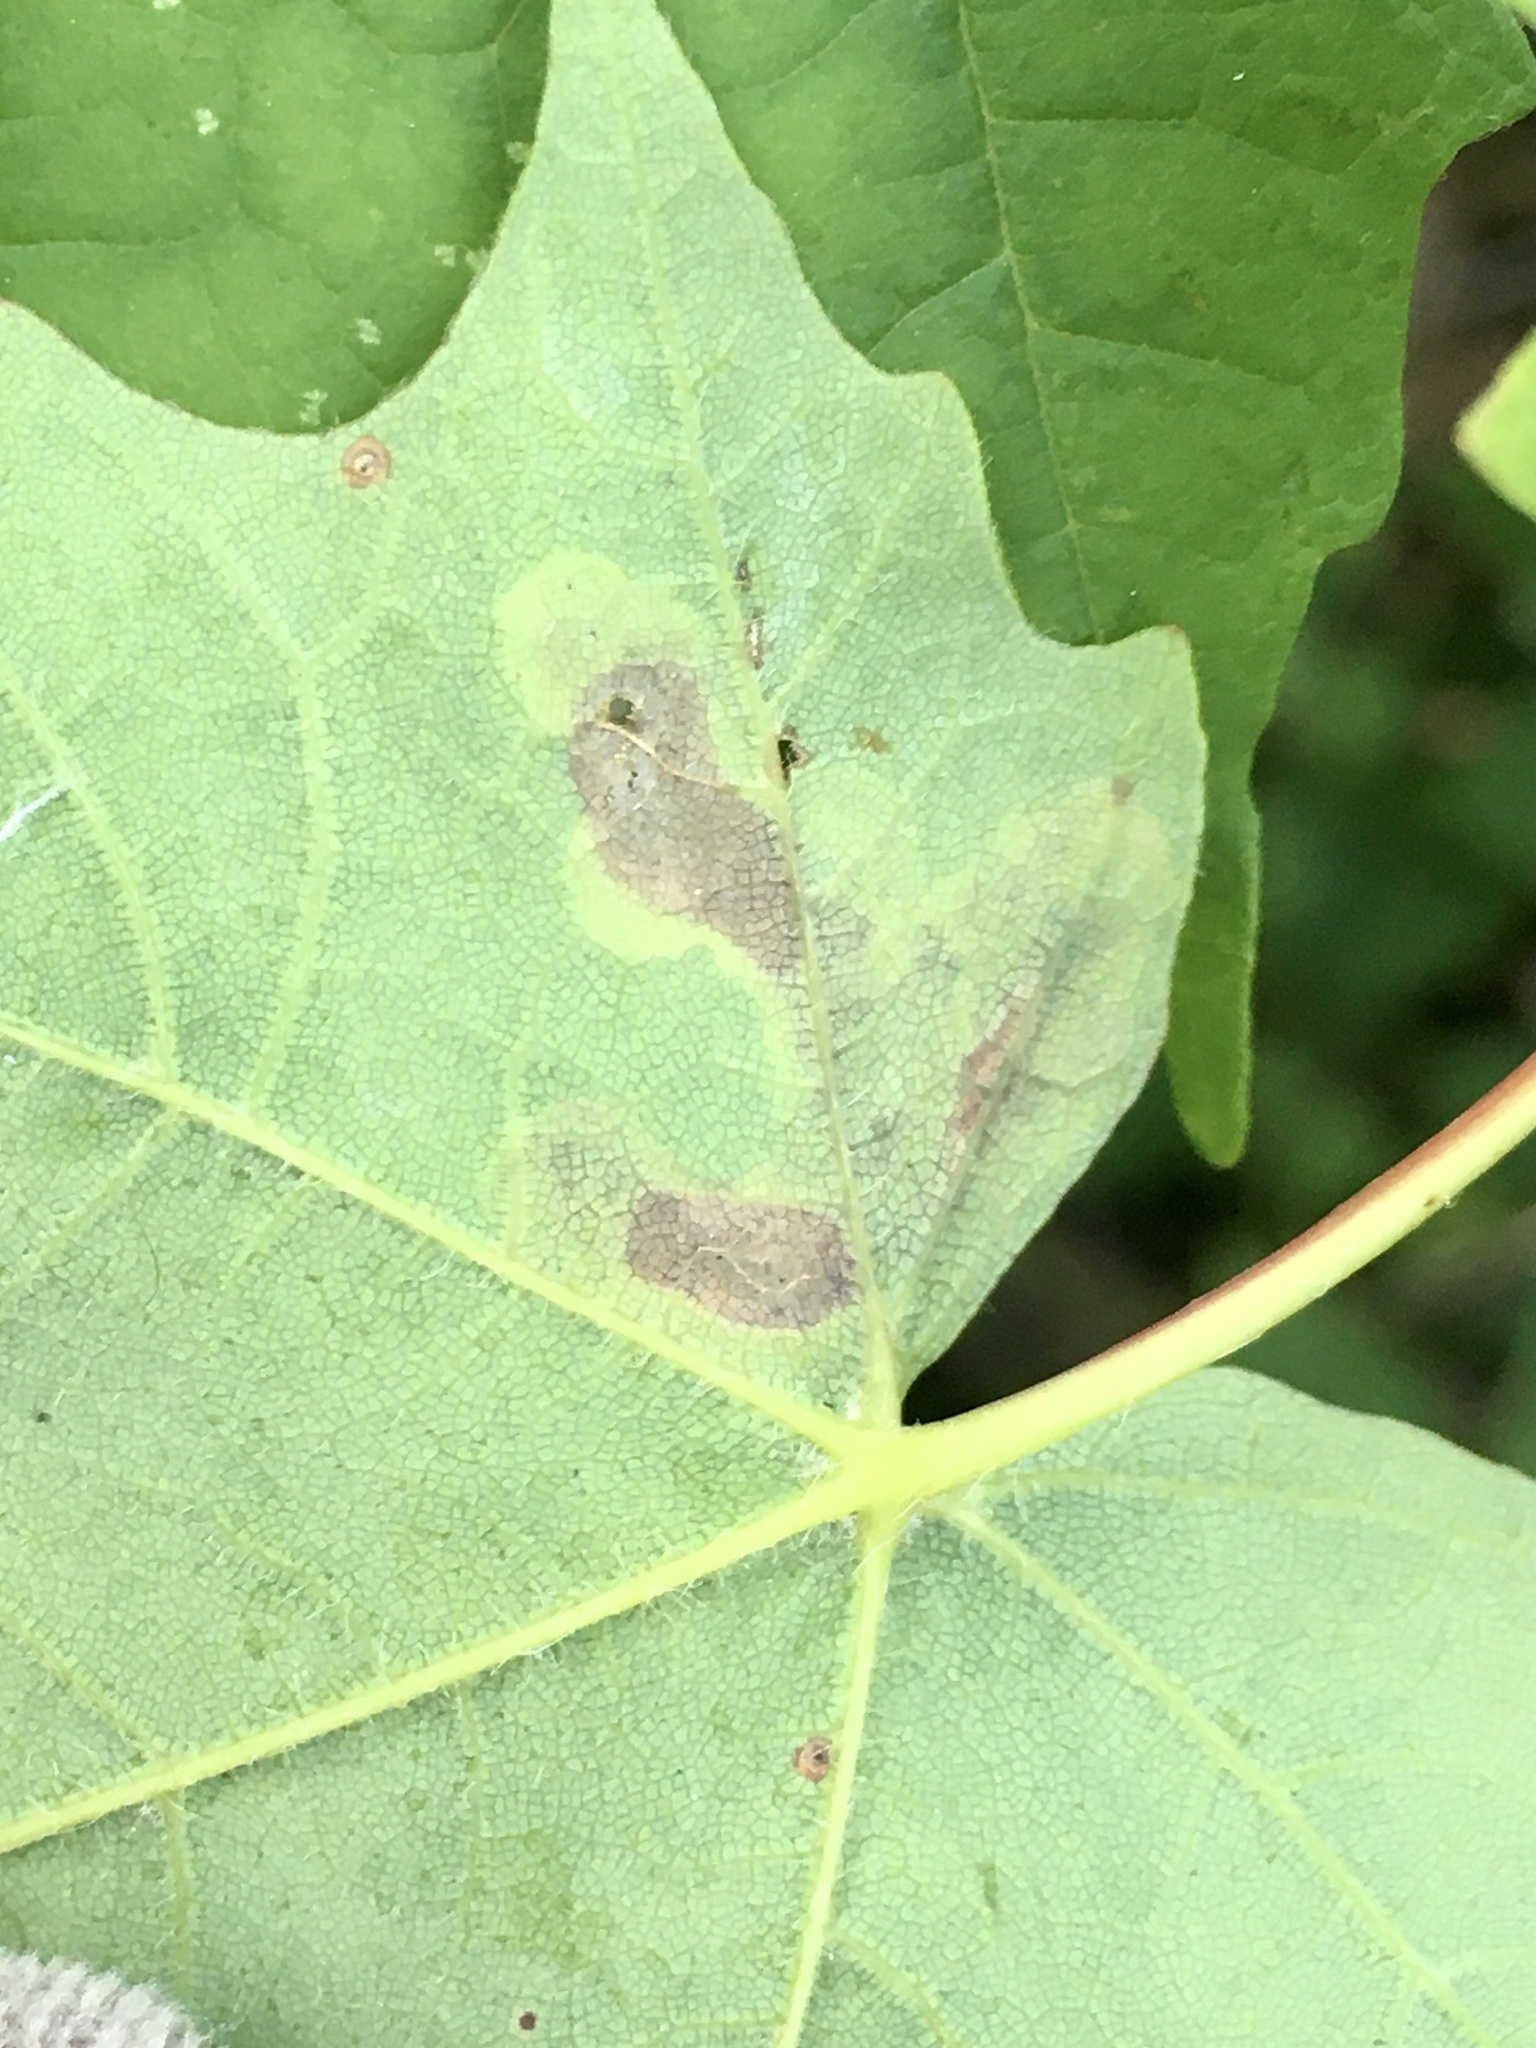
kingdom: Animalia
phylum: Arthropoda
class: Insecta
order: Lepidoptera
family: Gracillariidae
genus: Cameraria
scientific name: Cameraria
